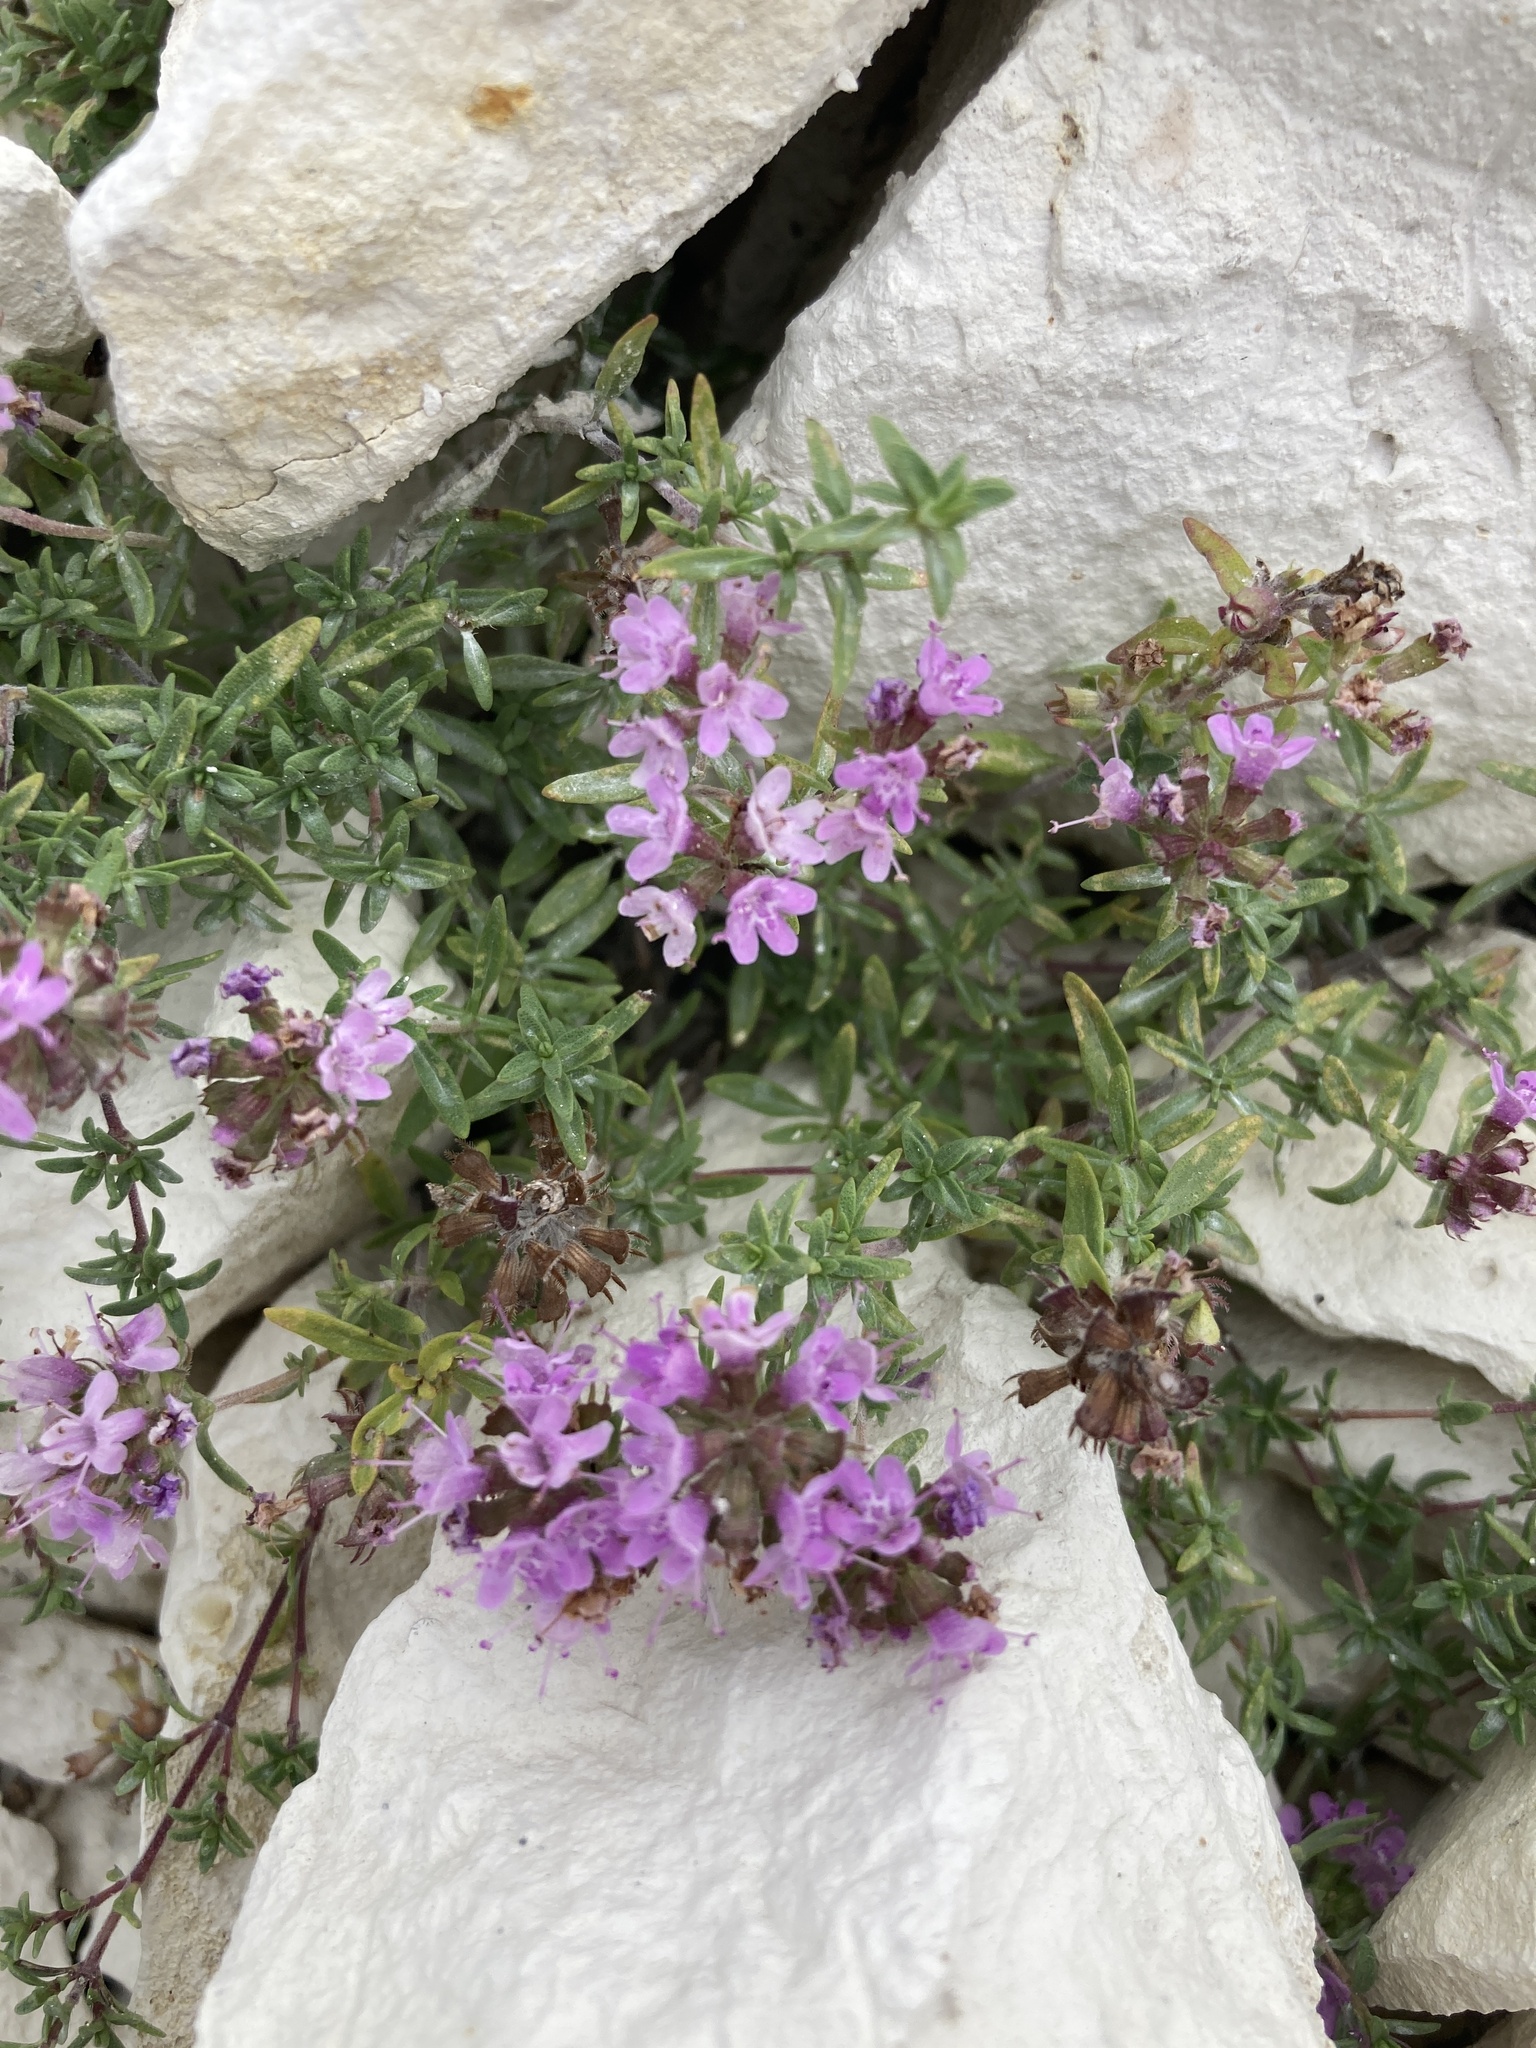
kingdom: Plantae
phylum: Tracheophyta
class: Magnoliopsida
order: Lamiales
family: Lamiaceae
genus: Thymus
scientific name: Thymus calcareus
